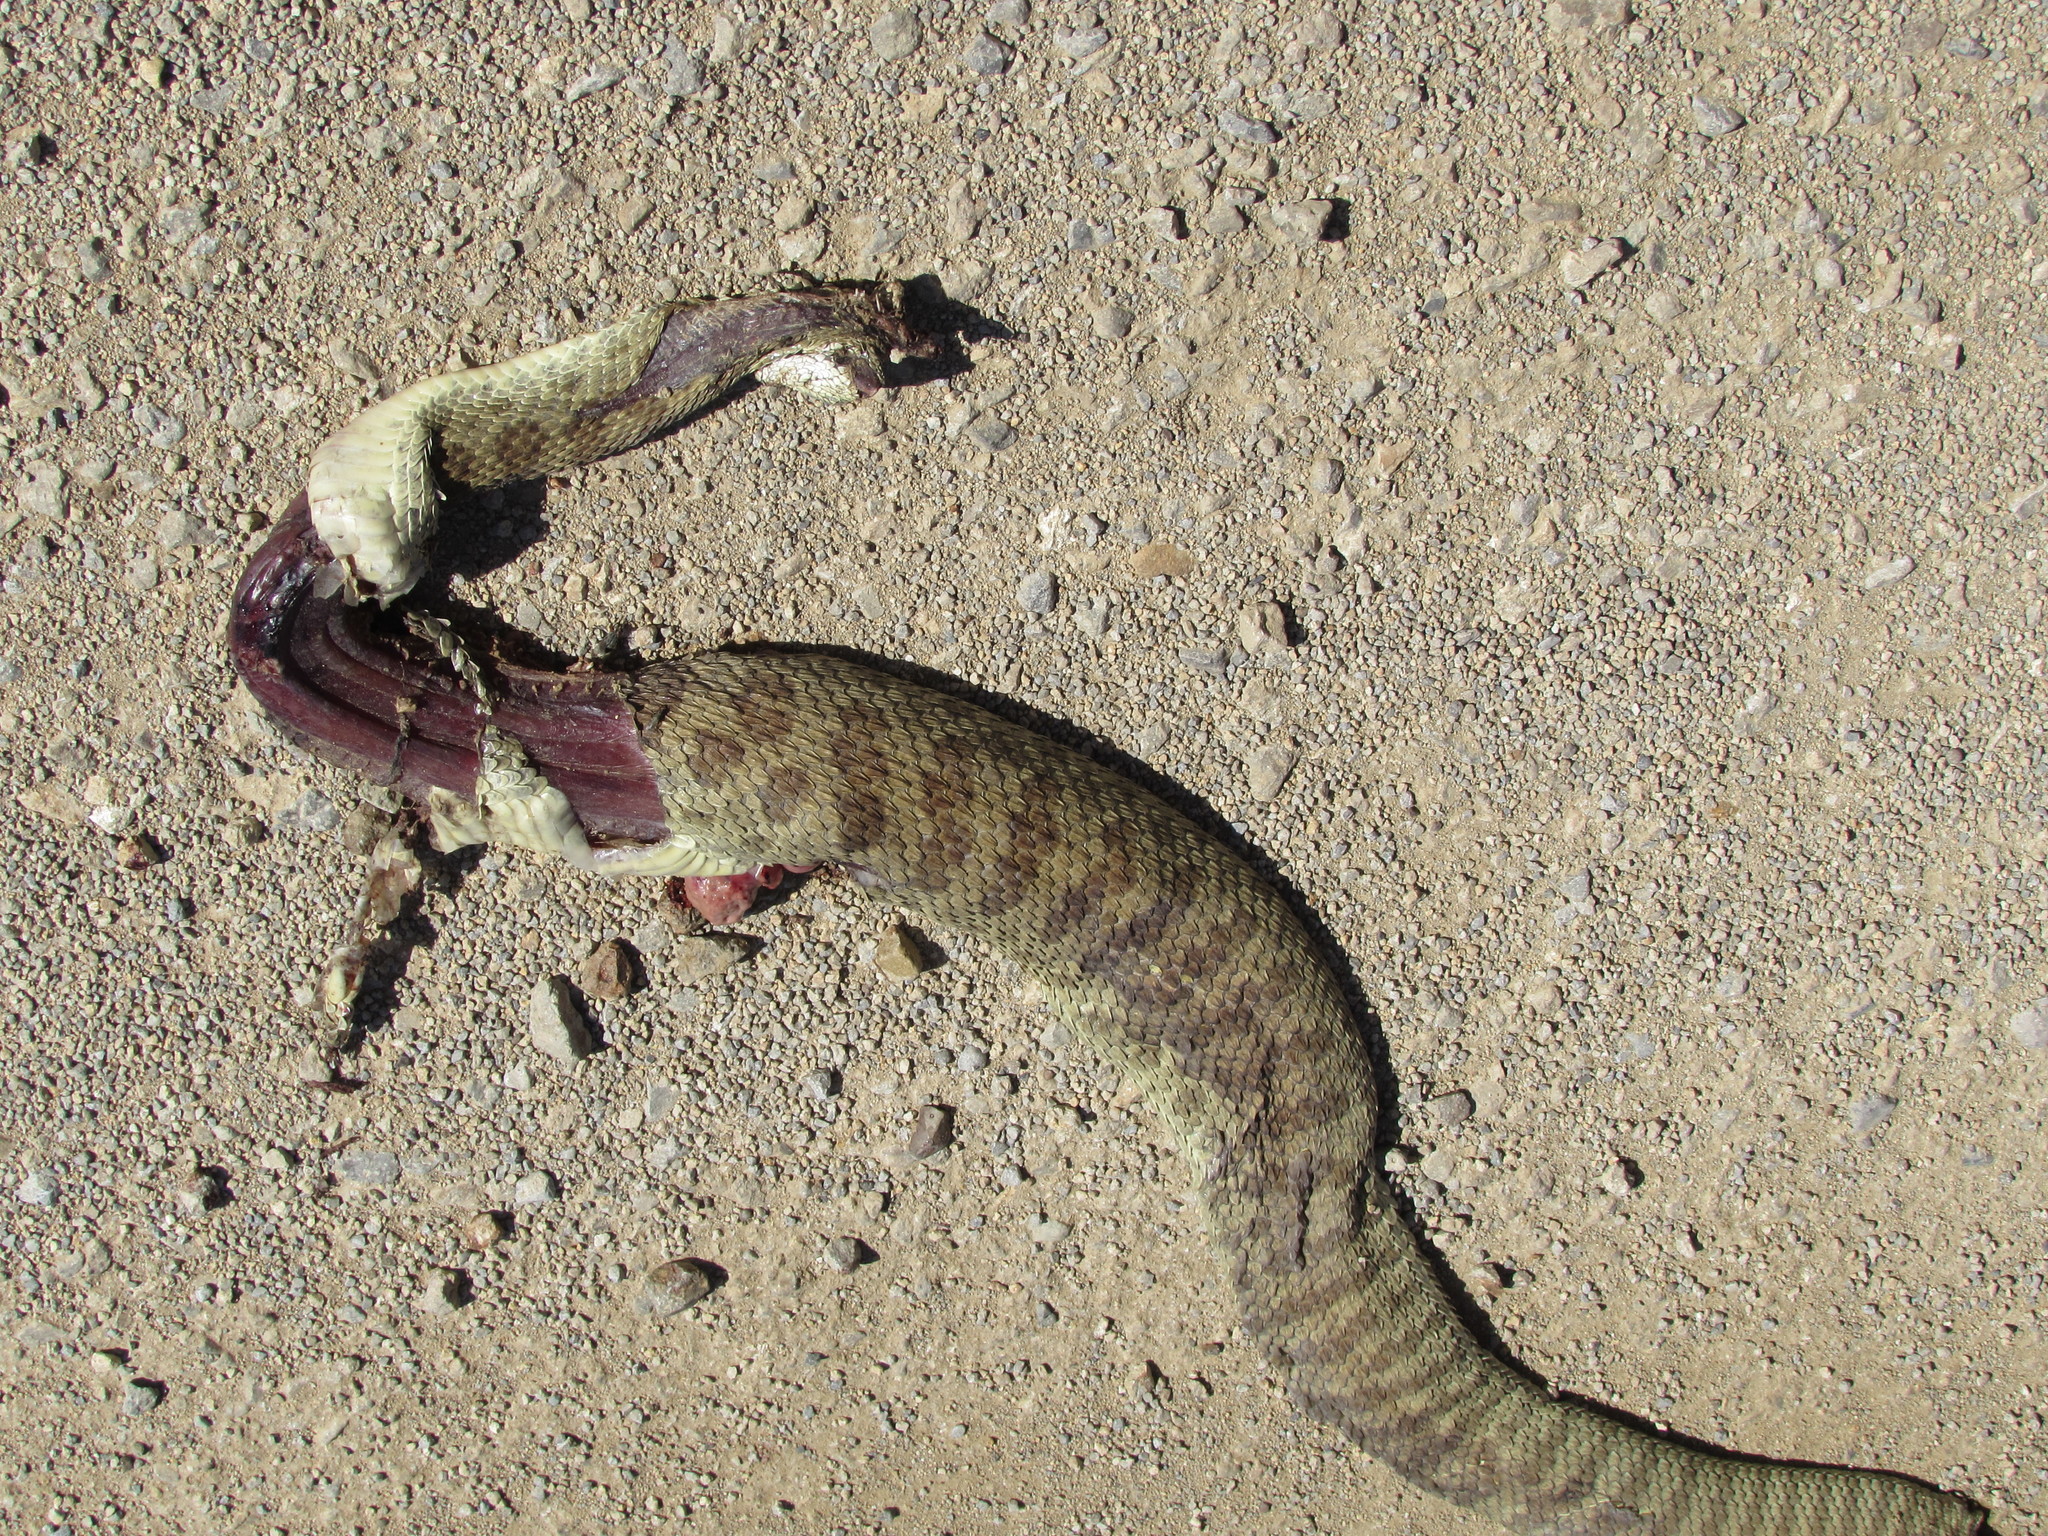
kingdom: Animalia
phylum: Chordata
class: Squamata
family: Viperidae
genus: Crotalus
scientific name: Crotalus viridis
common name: Prairie rattlesnake
